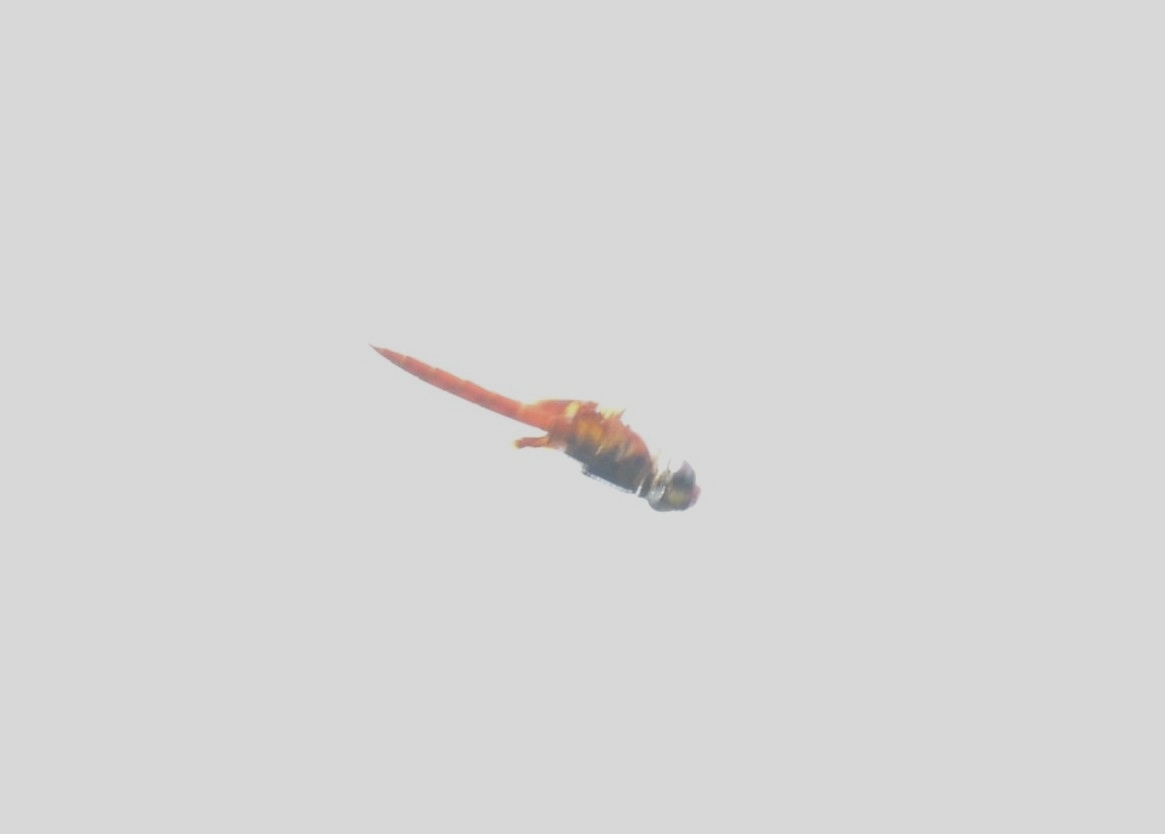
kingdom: Animalia
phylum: Arthropoda
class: Insecta
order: Odonata
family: Libellulidae
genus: Tramea
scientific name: Tramea basilaris
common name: Keyhole glider
